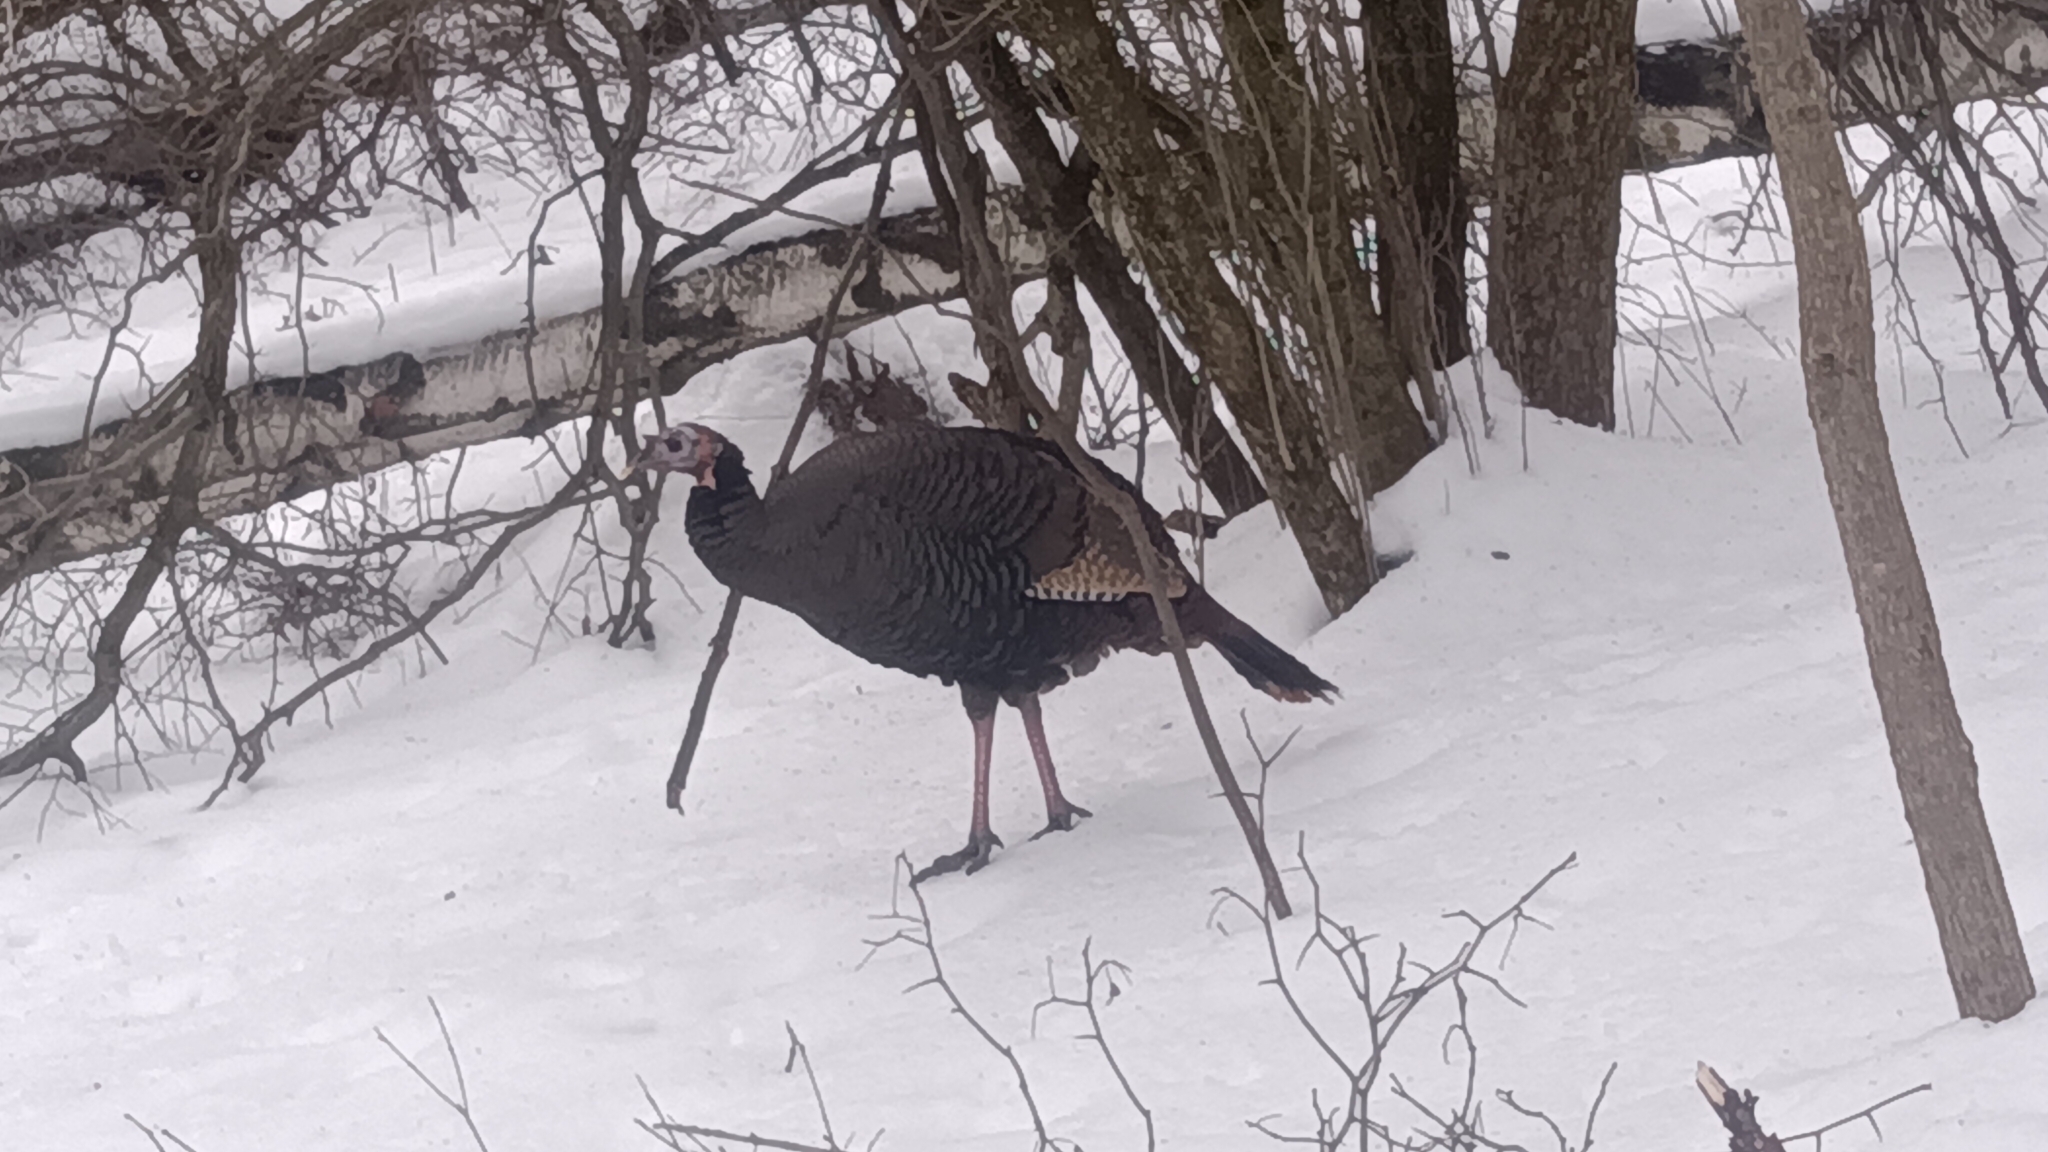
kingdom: Animalia
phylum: Chordata
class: Aves
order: Galliformes
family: Phasianidae
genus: Meleagris
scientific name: Meleagris gallopavo
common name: Wild turkey
